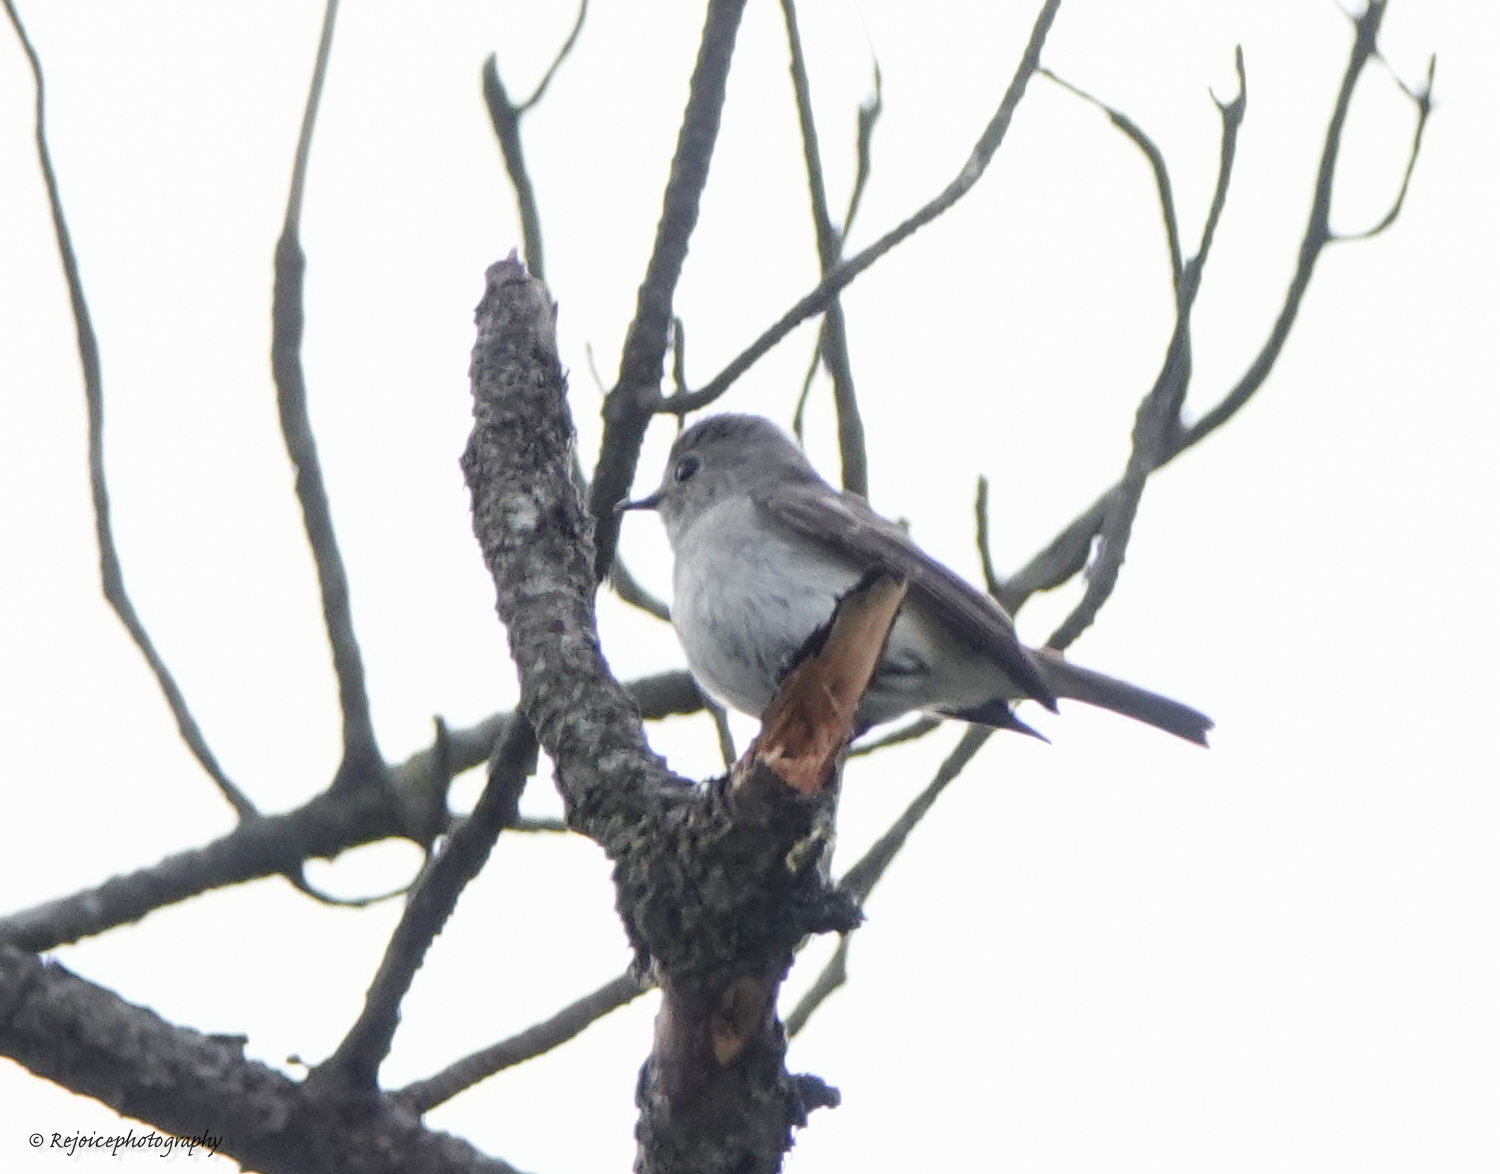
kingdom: Animalia
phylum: Chordata
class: Aves
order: Passeriformes
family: Muscicapidae
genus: Ficedula
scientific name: Ficedula westermanni
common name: Little pied flycatcher
